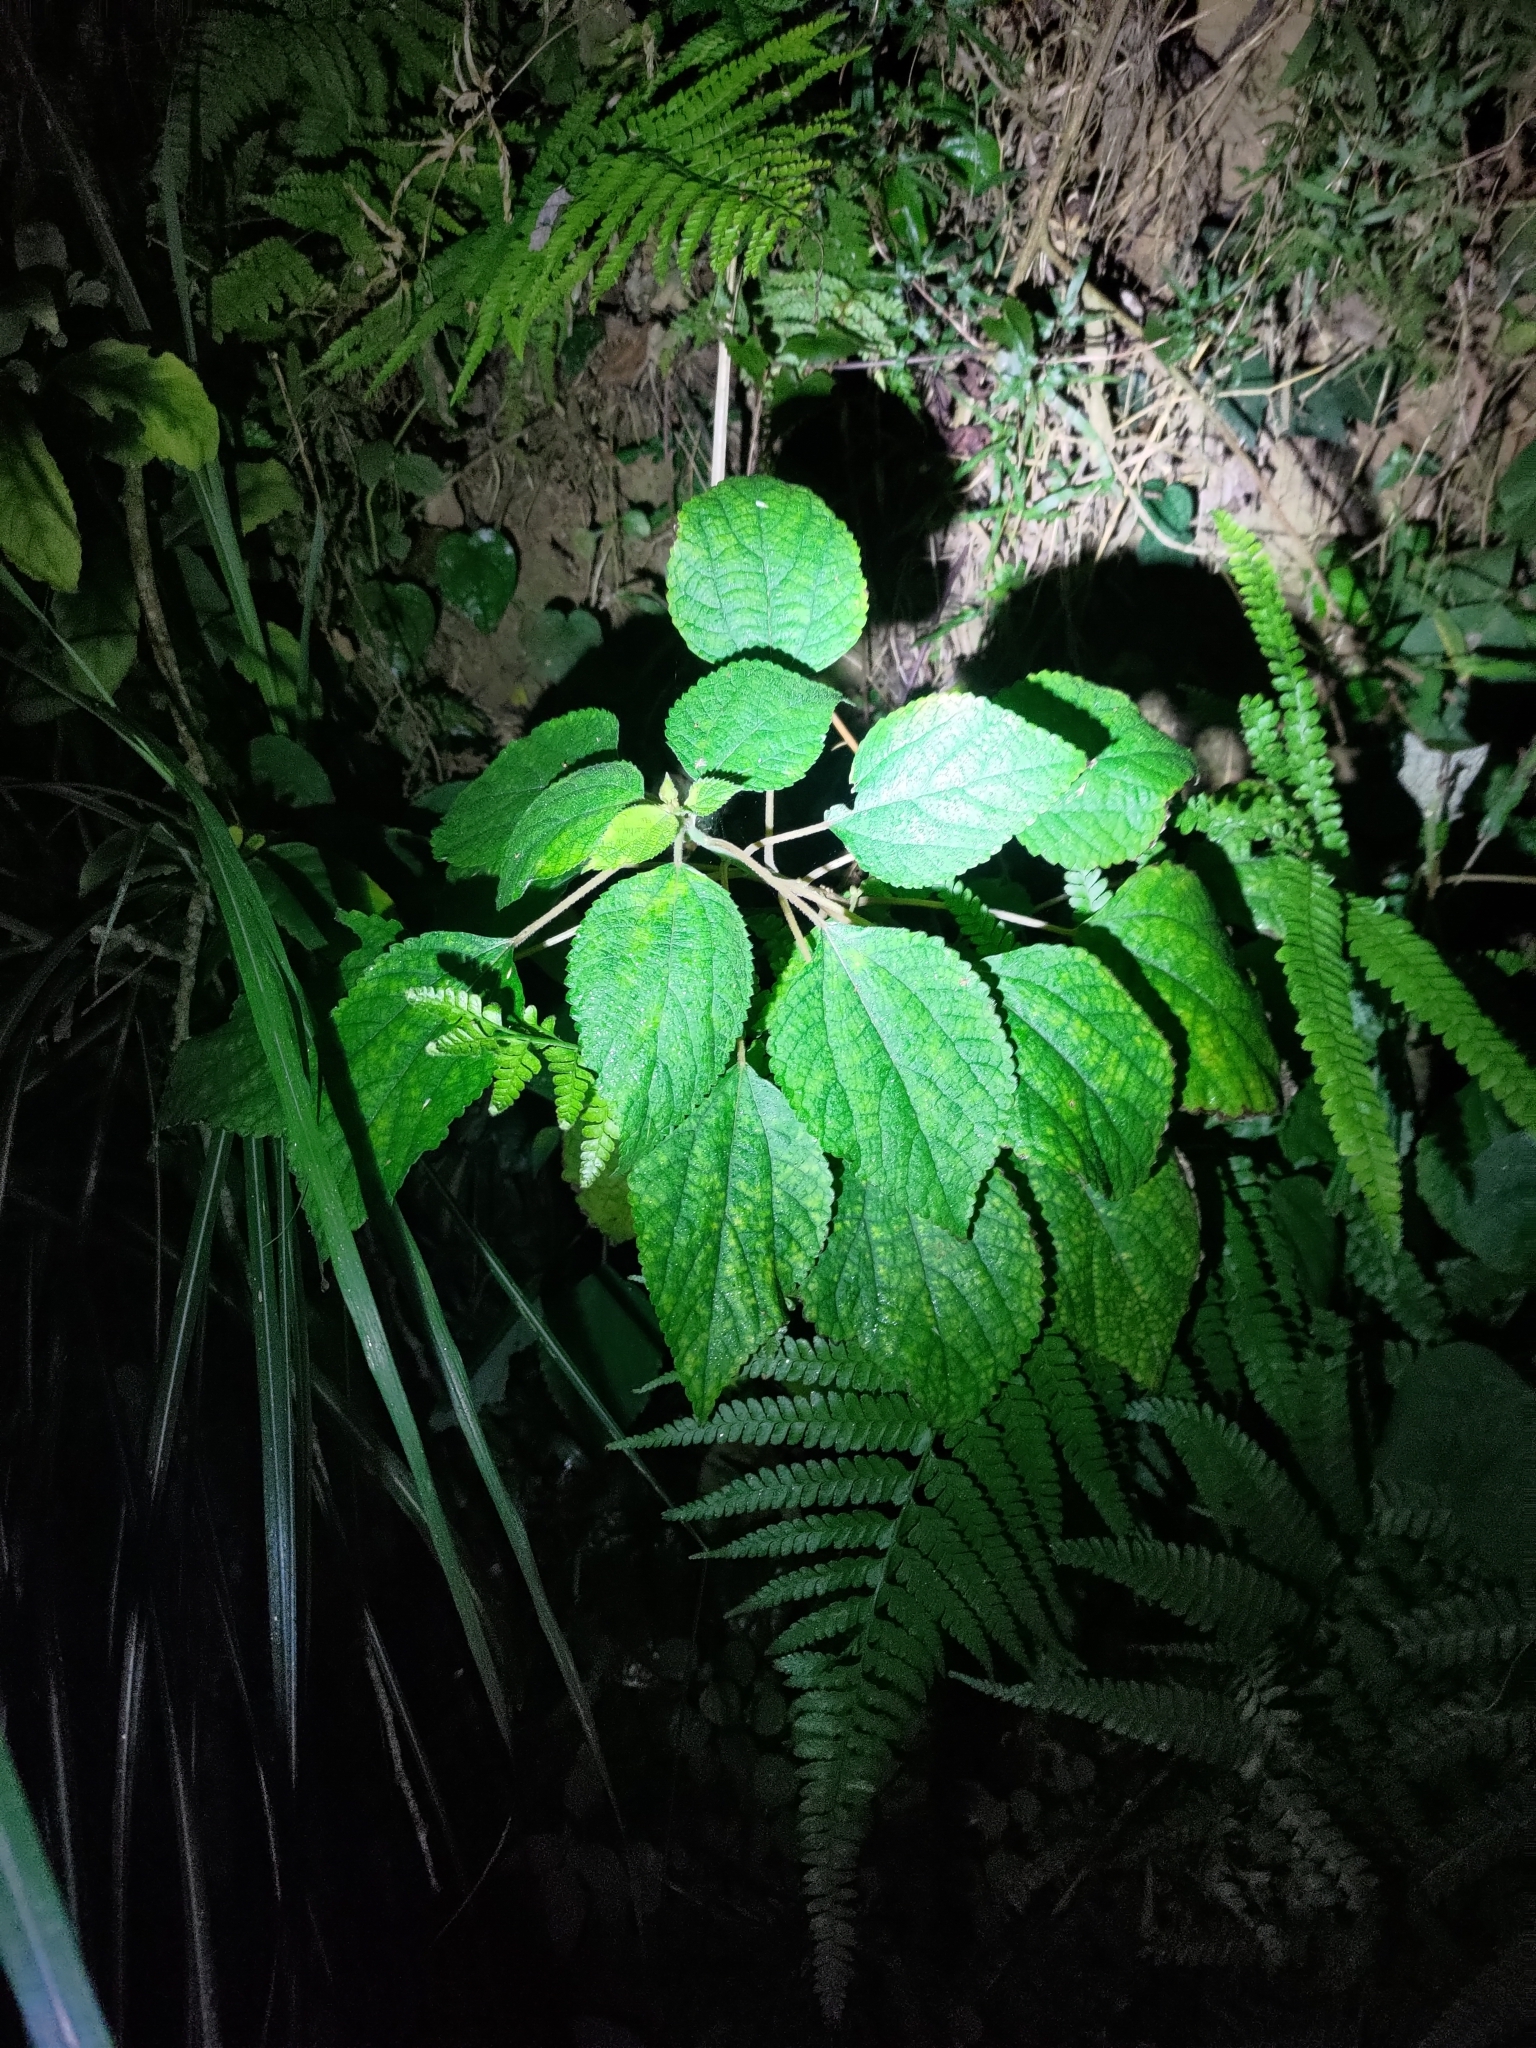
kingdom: Plantae
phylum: Tracheophyta
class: Magnoliopsida
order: Rosales
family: Urticaceae
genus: Boehmeria
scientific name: Boehmeria nivea
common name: Ramie chinese grass
